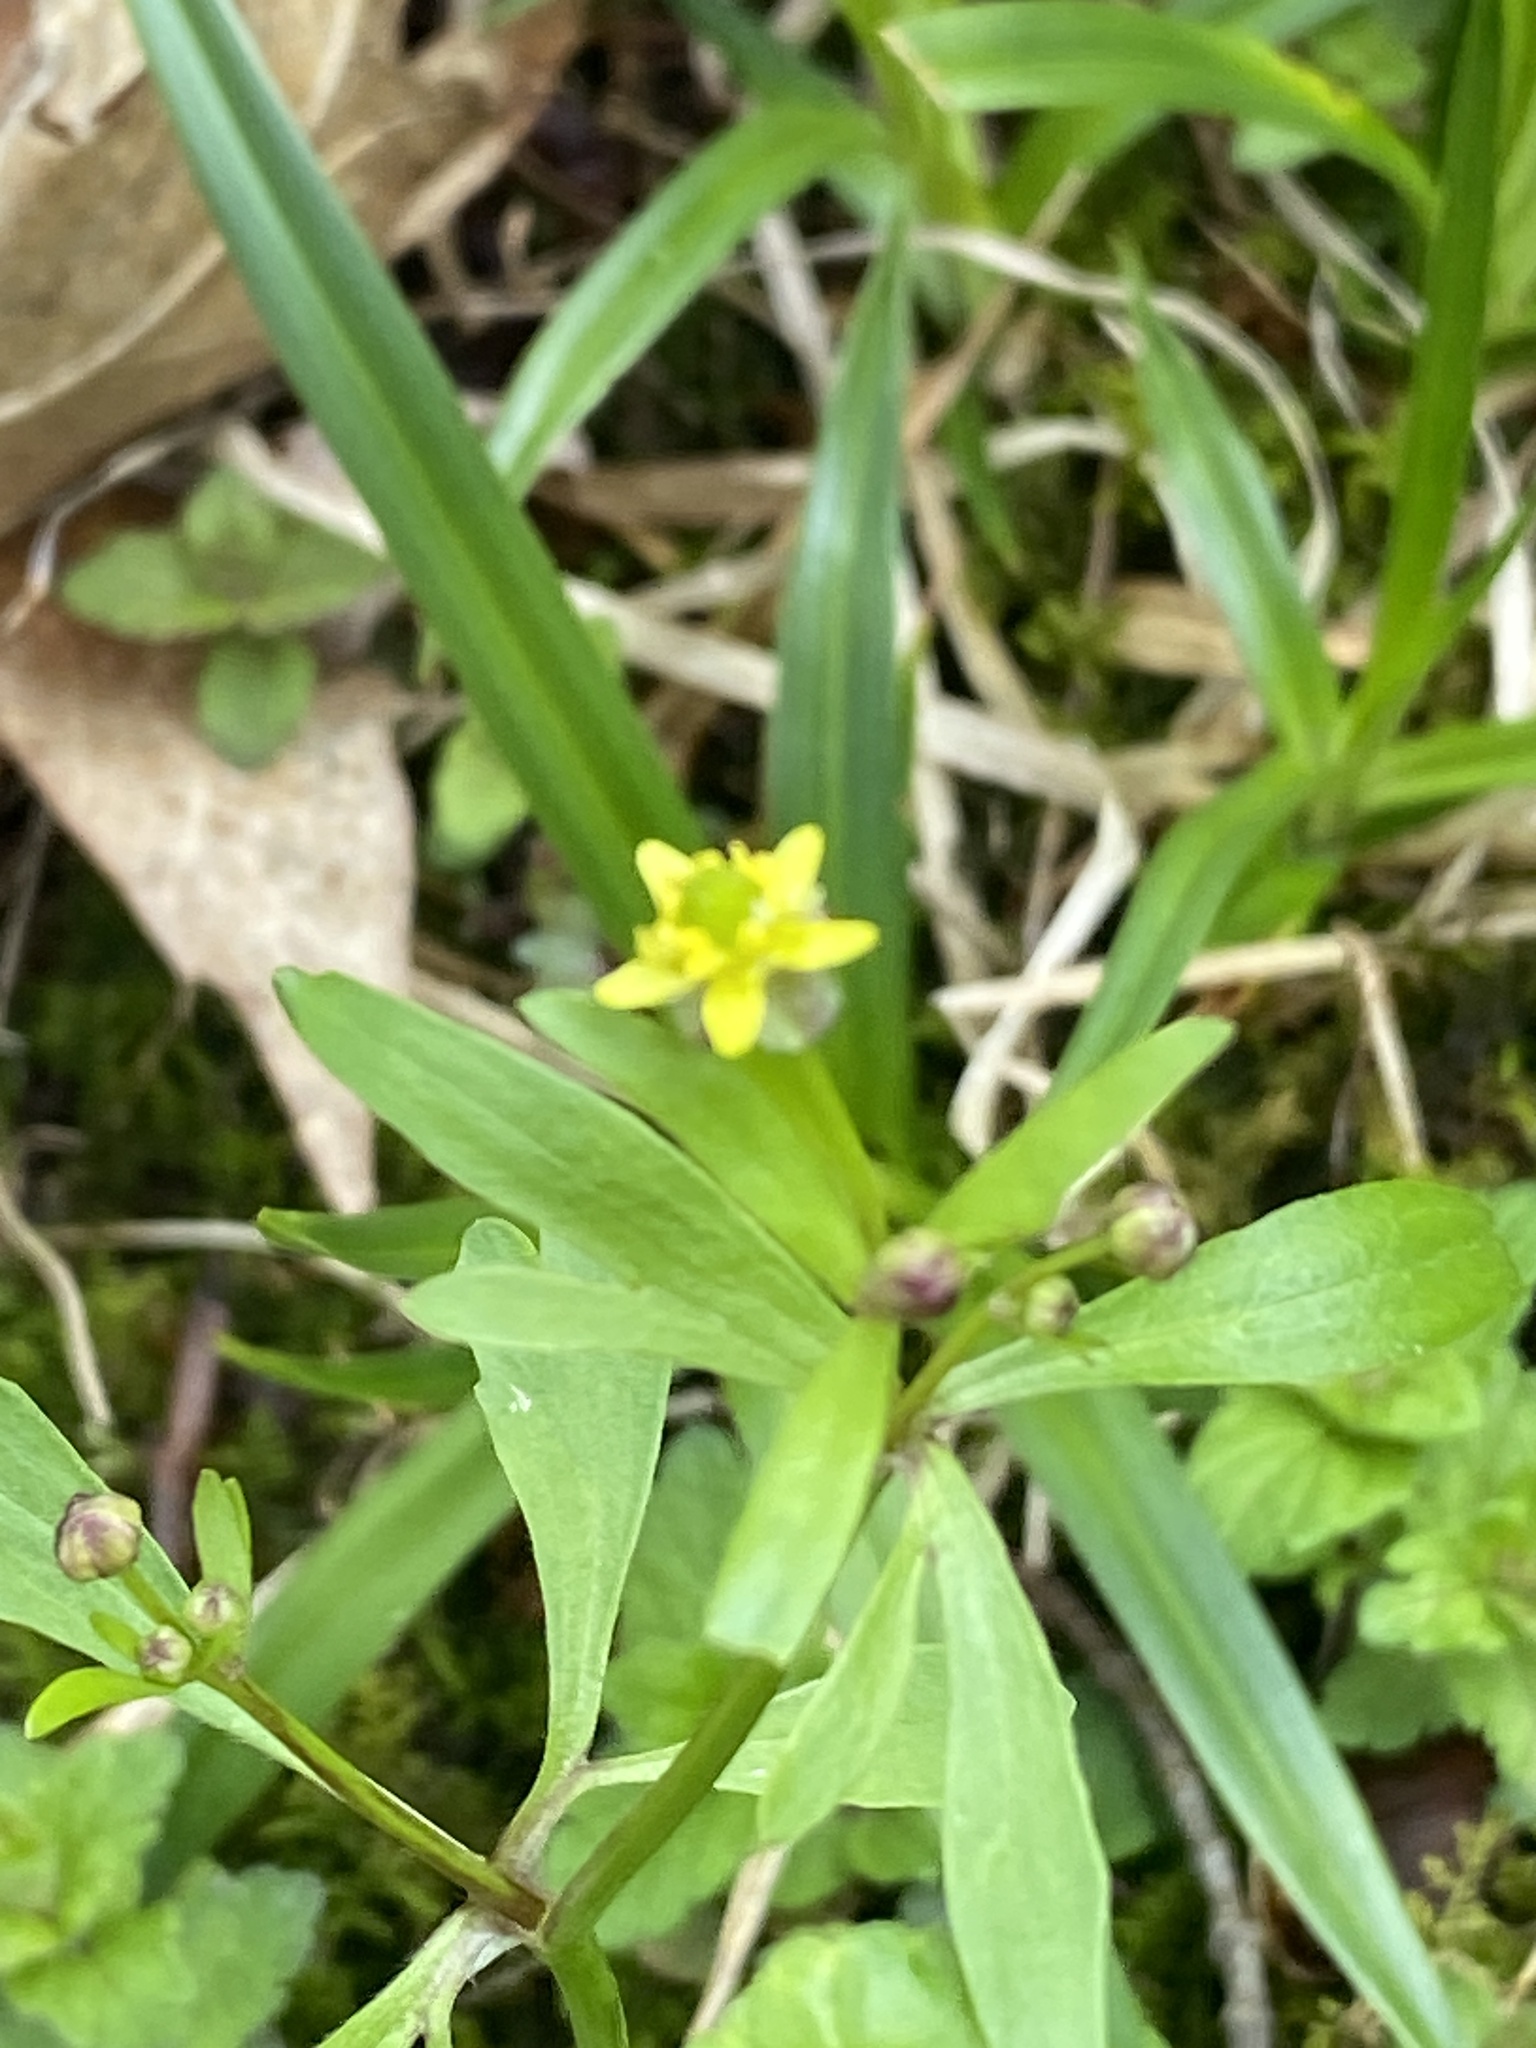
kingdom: Plantae
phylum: Tracheophyta
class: Magnoliopsida
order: Ranunculales
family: Ranunculaceae
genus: Ranunculus
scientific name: Ranunculus abortivus
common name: Early wood buttercup
